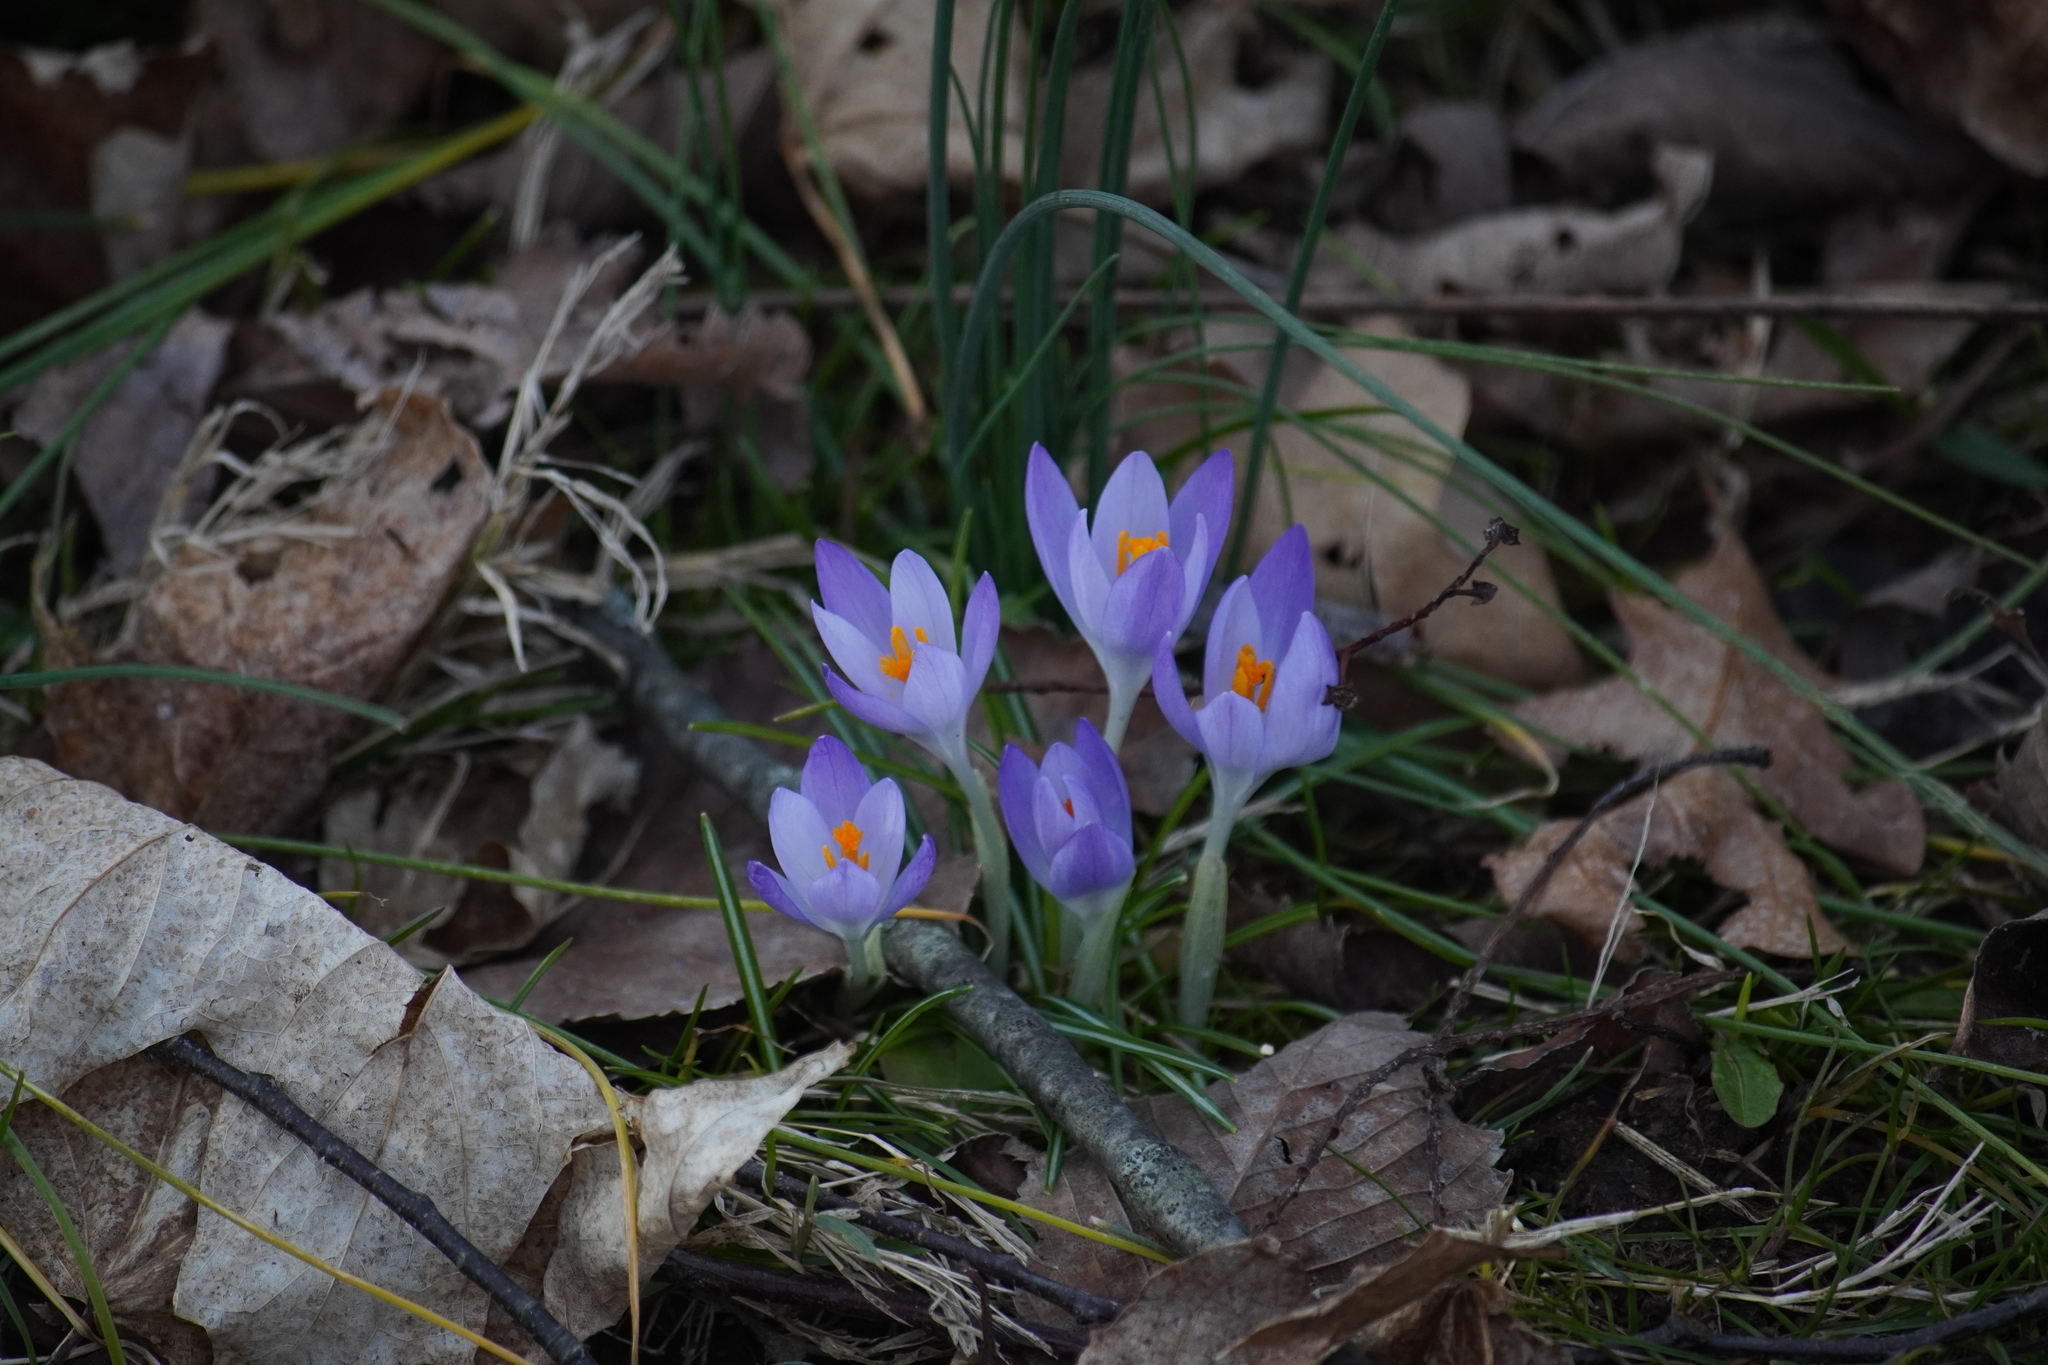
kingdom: Plantae
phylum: Tracheophyta
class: Liliopsida
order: Asparagales
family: Iridaceae
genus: Crocus
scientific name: Crocus tommasinianus
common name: Early crocus
